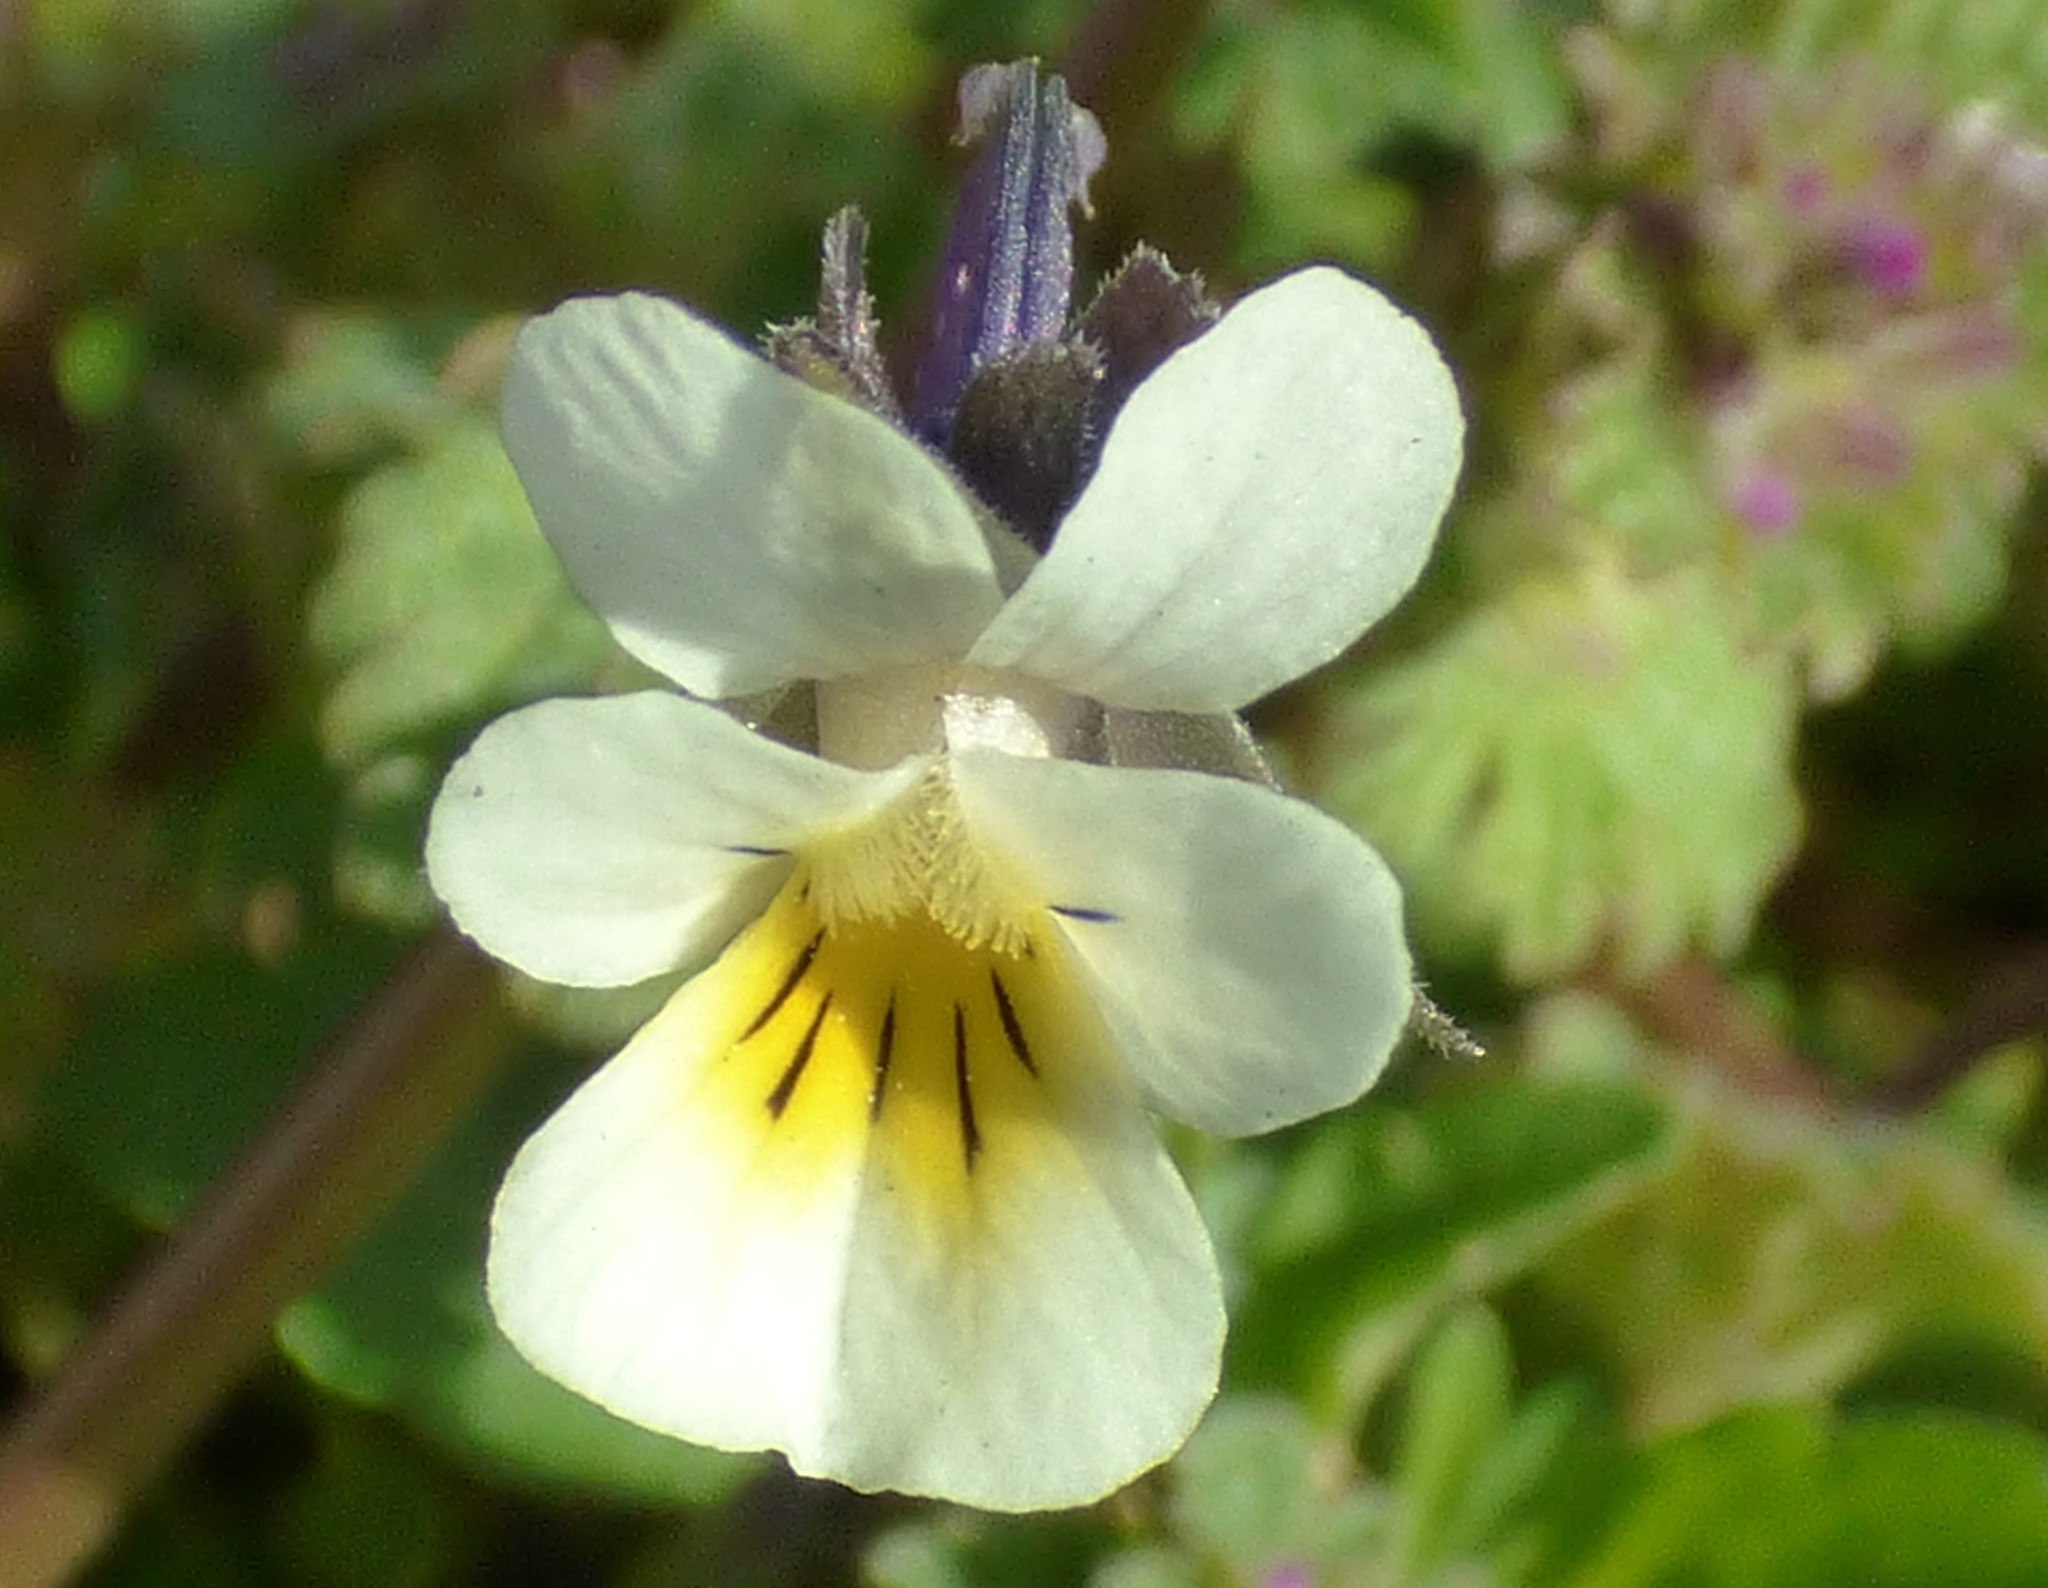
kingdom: Plantae
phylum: Tracheophyta
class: Magnoliopsida
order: Malpighiales
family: Violaceae
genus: Viola
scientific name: Viola rafinesquei
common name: American field pansy
